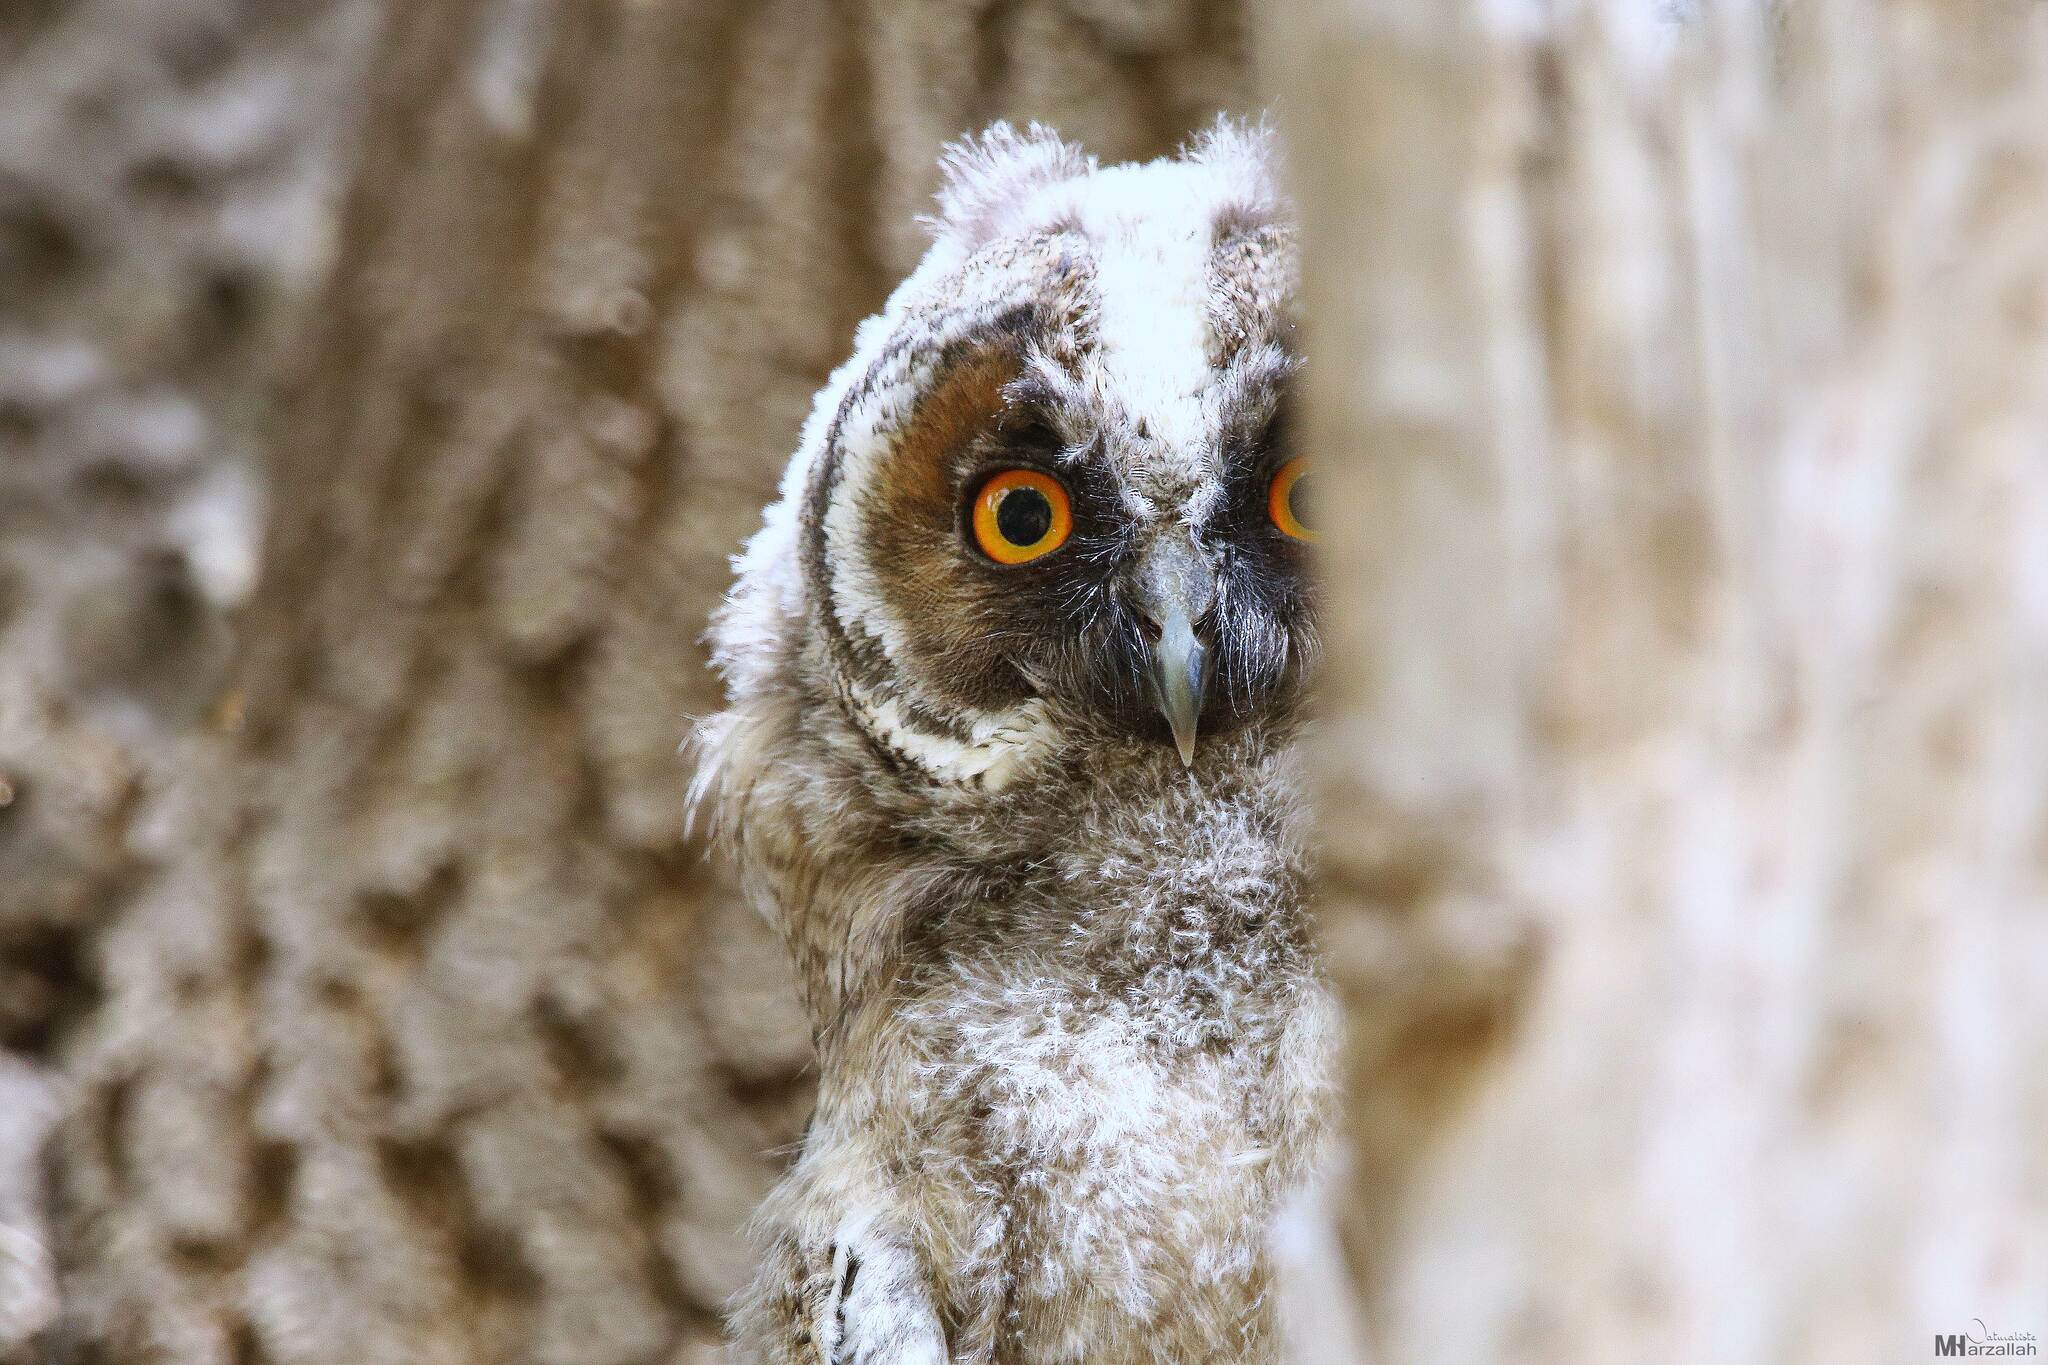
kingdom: Animalia
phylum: Chordata
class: Aves
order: Strigiformes
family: Strigidae
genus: Asio
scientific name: Asio otus
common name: Long-eared owl
